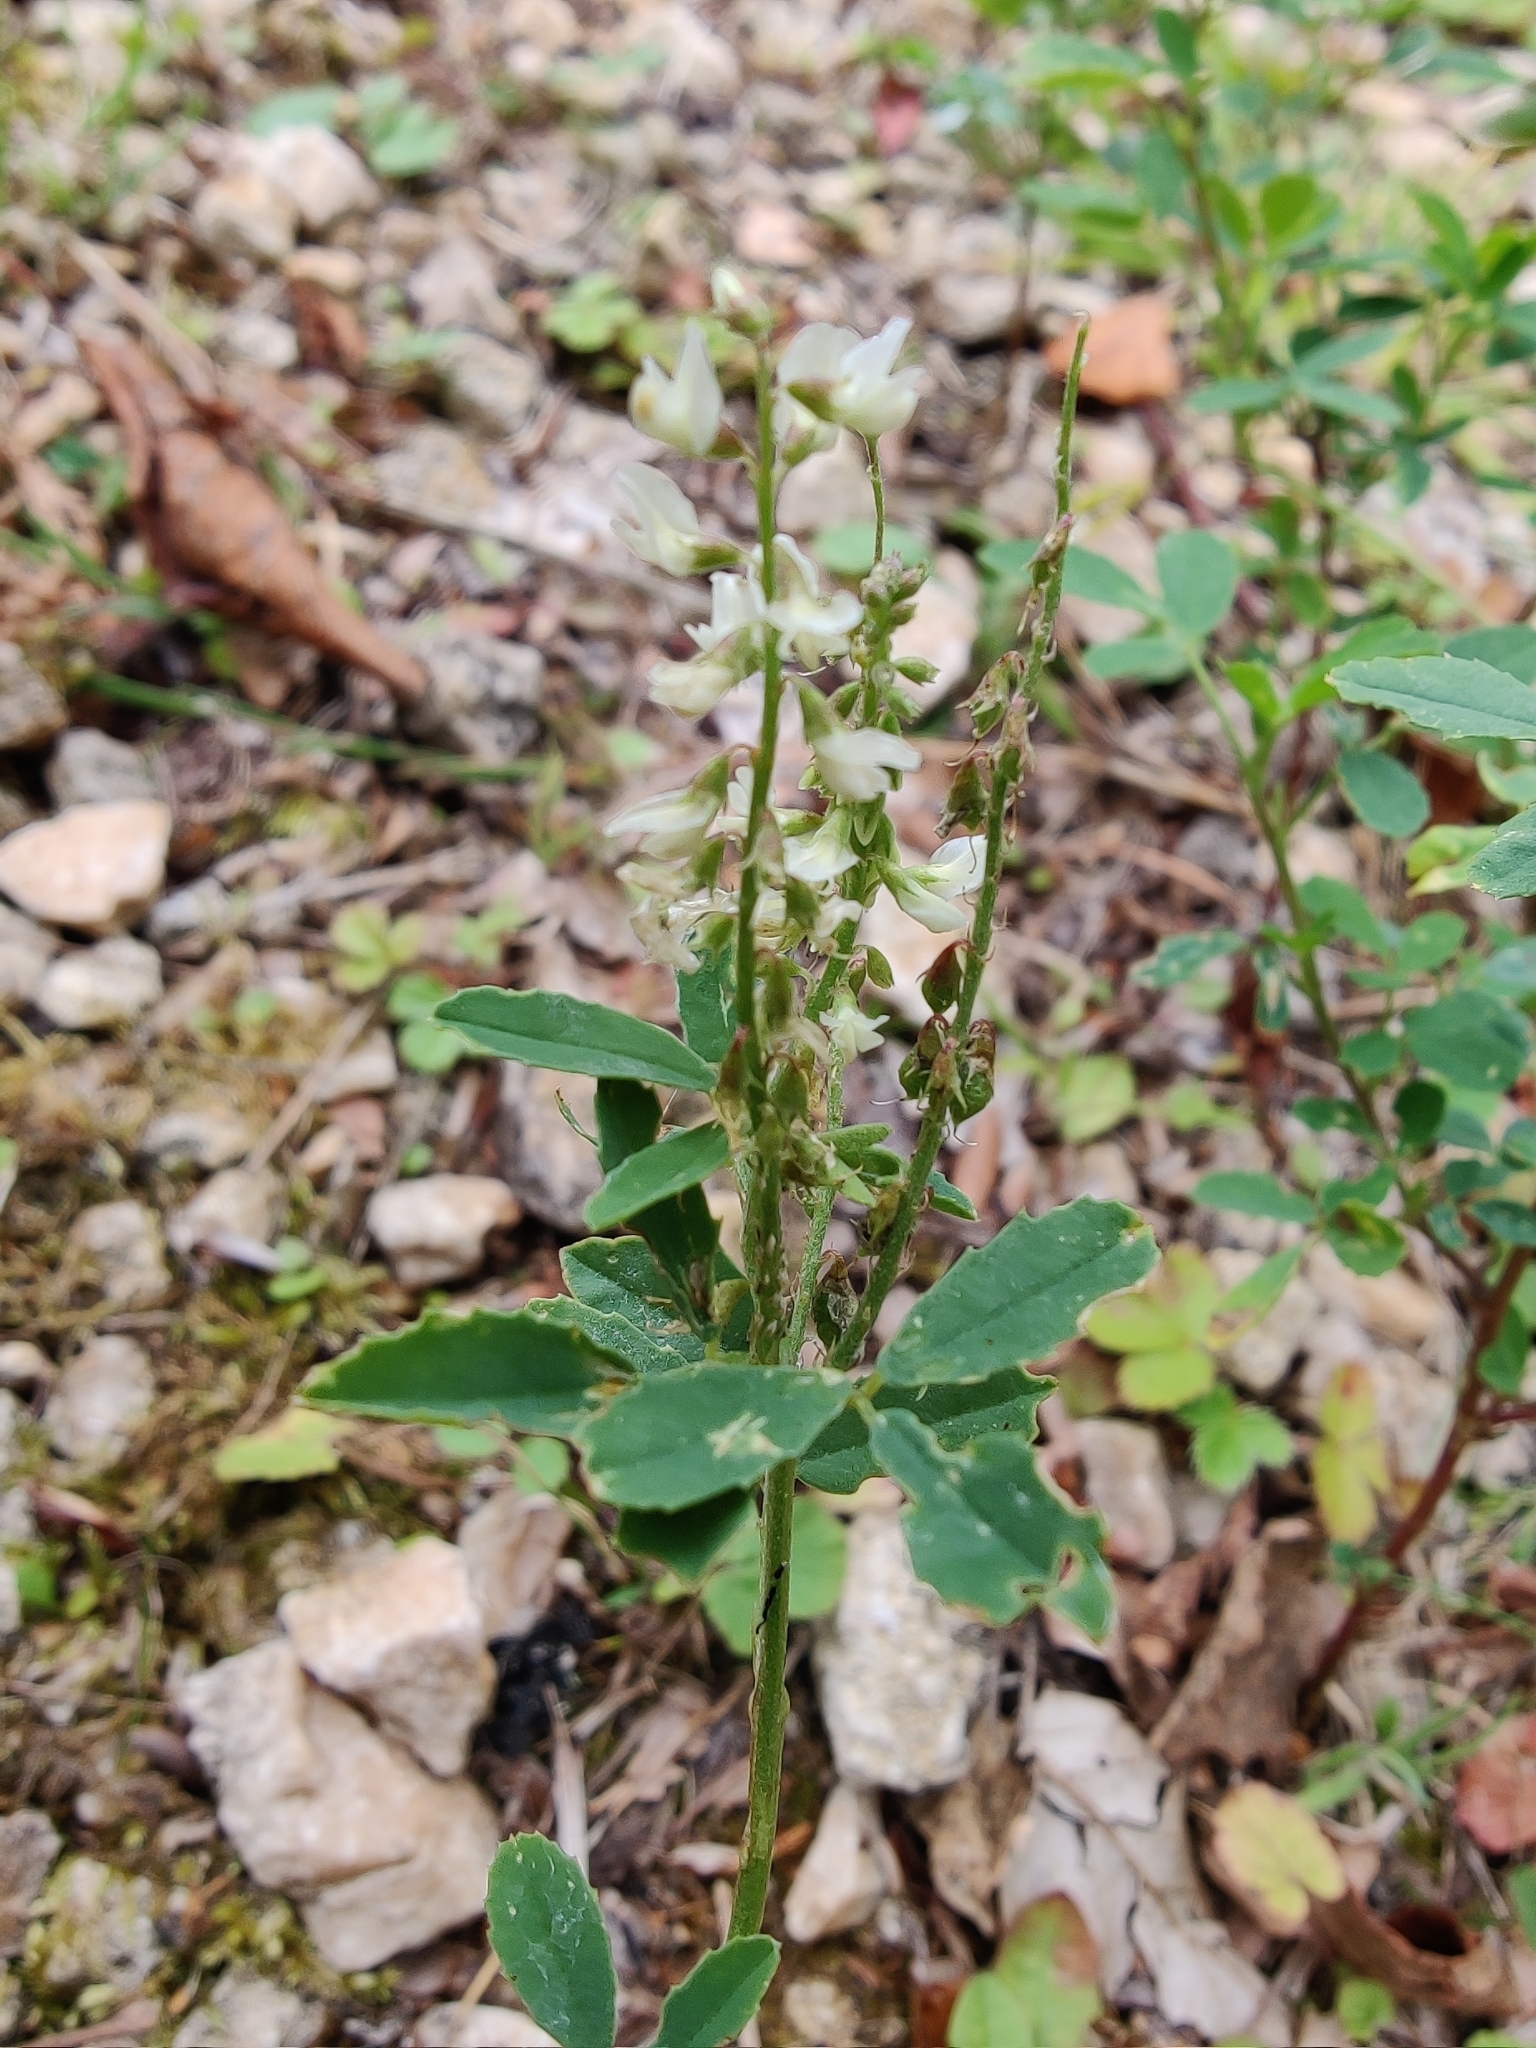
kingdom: Plantae
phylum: Tracheophyta
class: Magnoliopsida
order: Fabales
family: Fabaceae
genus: Melilotus
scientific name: Melilotus albus
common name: White melilot
